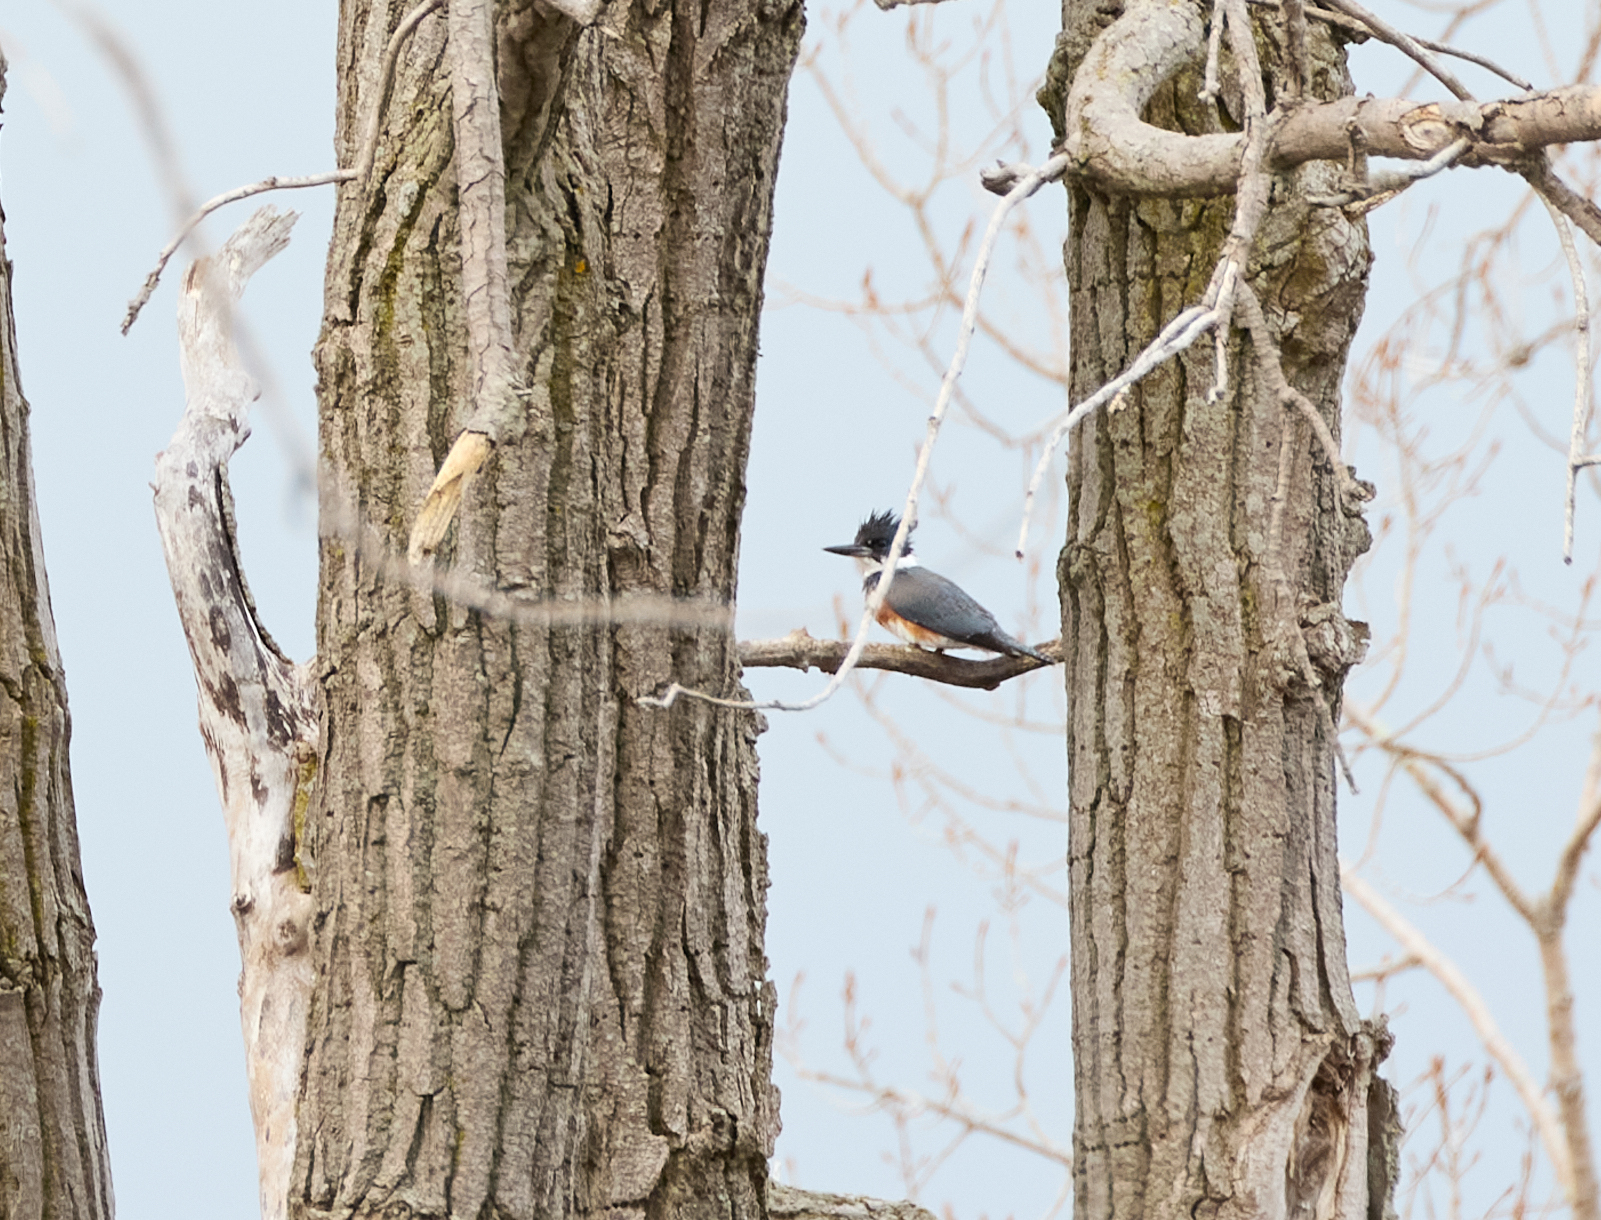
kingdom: Animalia
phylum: Chordata
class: Aves
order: Coraciiformes
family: Alcedinidae
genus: Megaceryle
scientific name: Megaceryle alcyon
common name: Belted kingfisher
